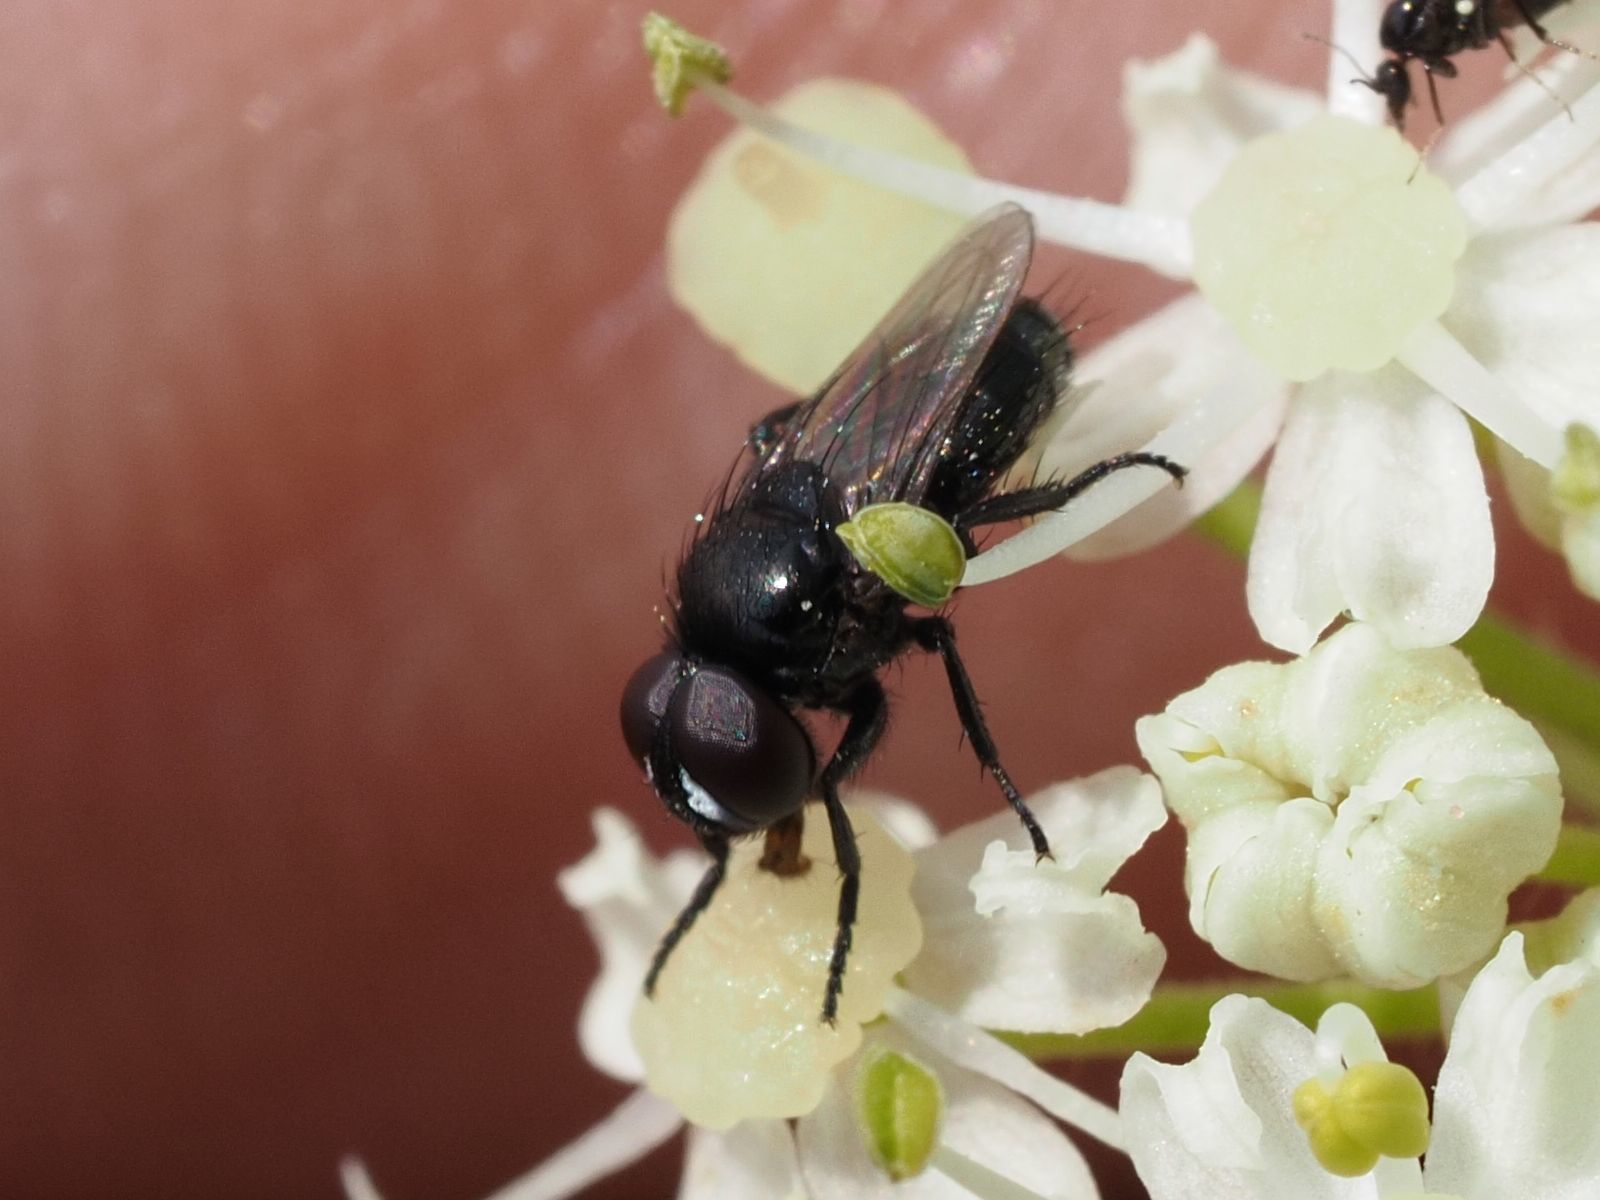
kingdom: Animalia
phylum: Arthropoda
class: Insecta
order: Diptera
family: Tachinidae
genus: Litophasia
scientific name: Litophasia hyalipennis
